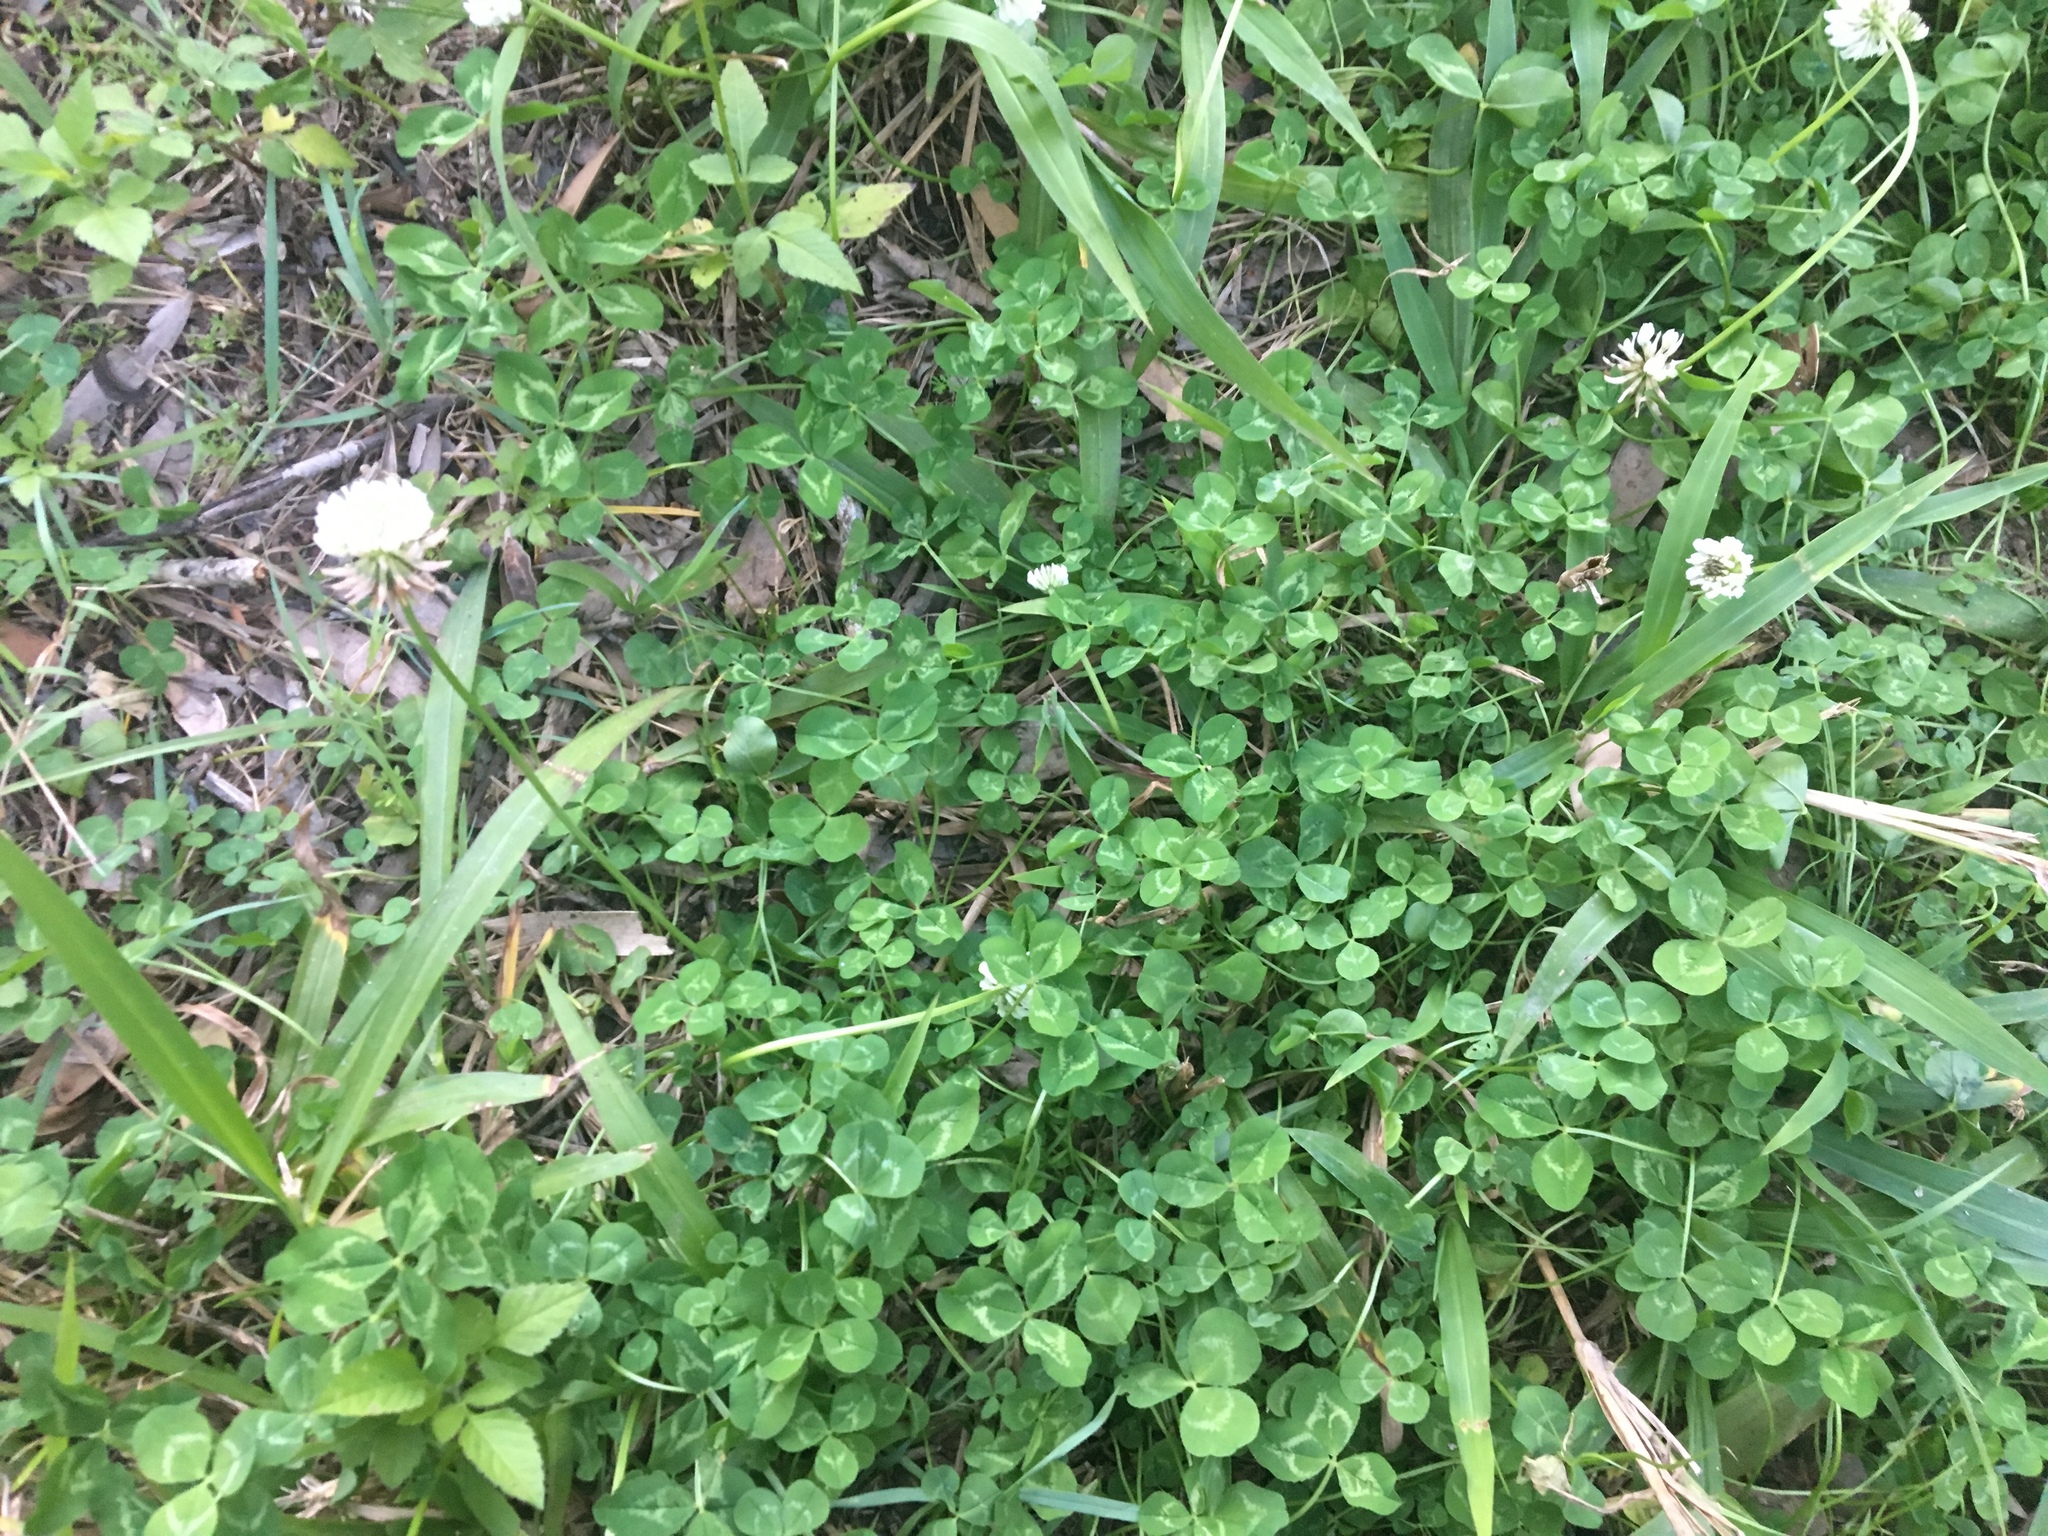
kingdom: Plantae
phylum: Tracheophyta
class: Magnoliopsida
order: Fabales
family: Fabaceae
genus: Trifolium
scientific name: Trifolium repens
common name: White clover
